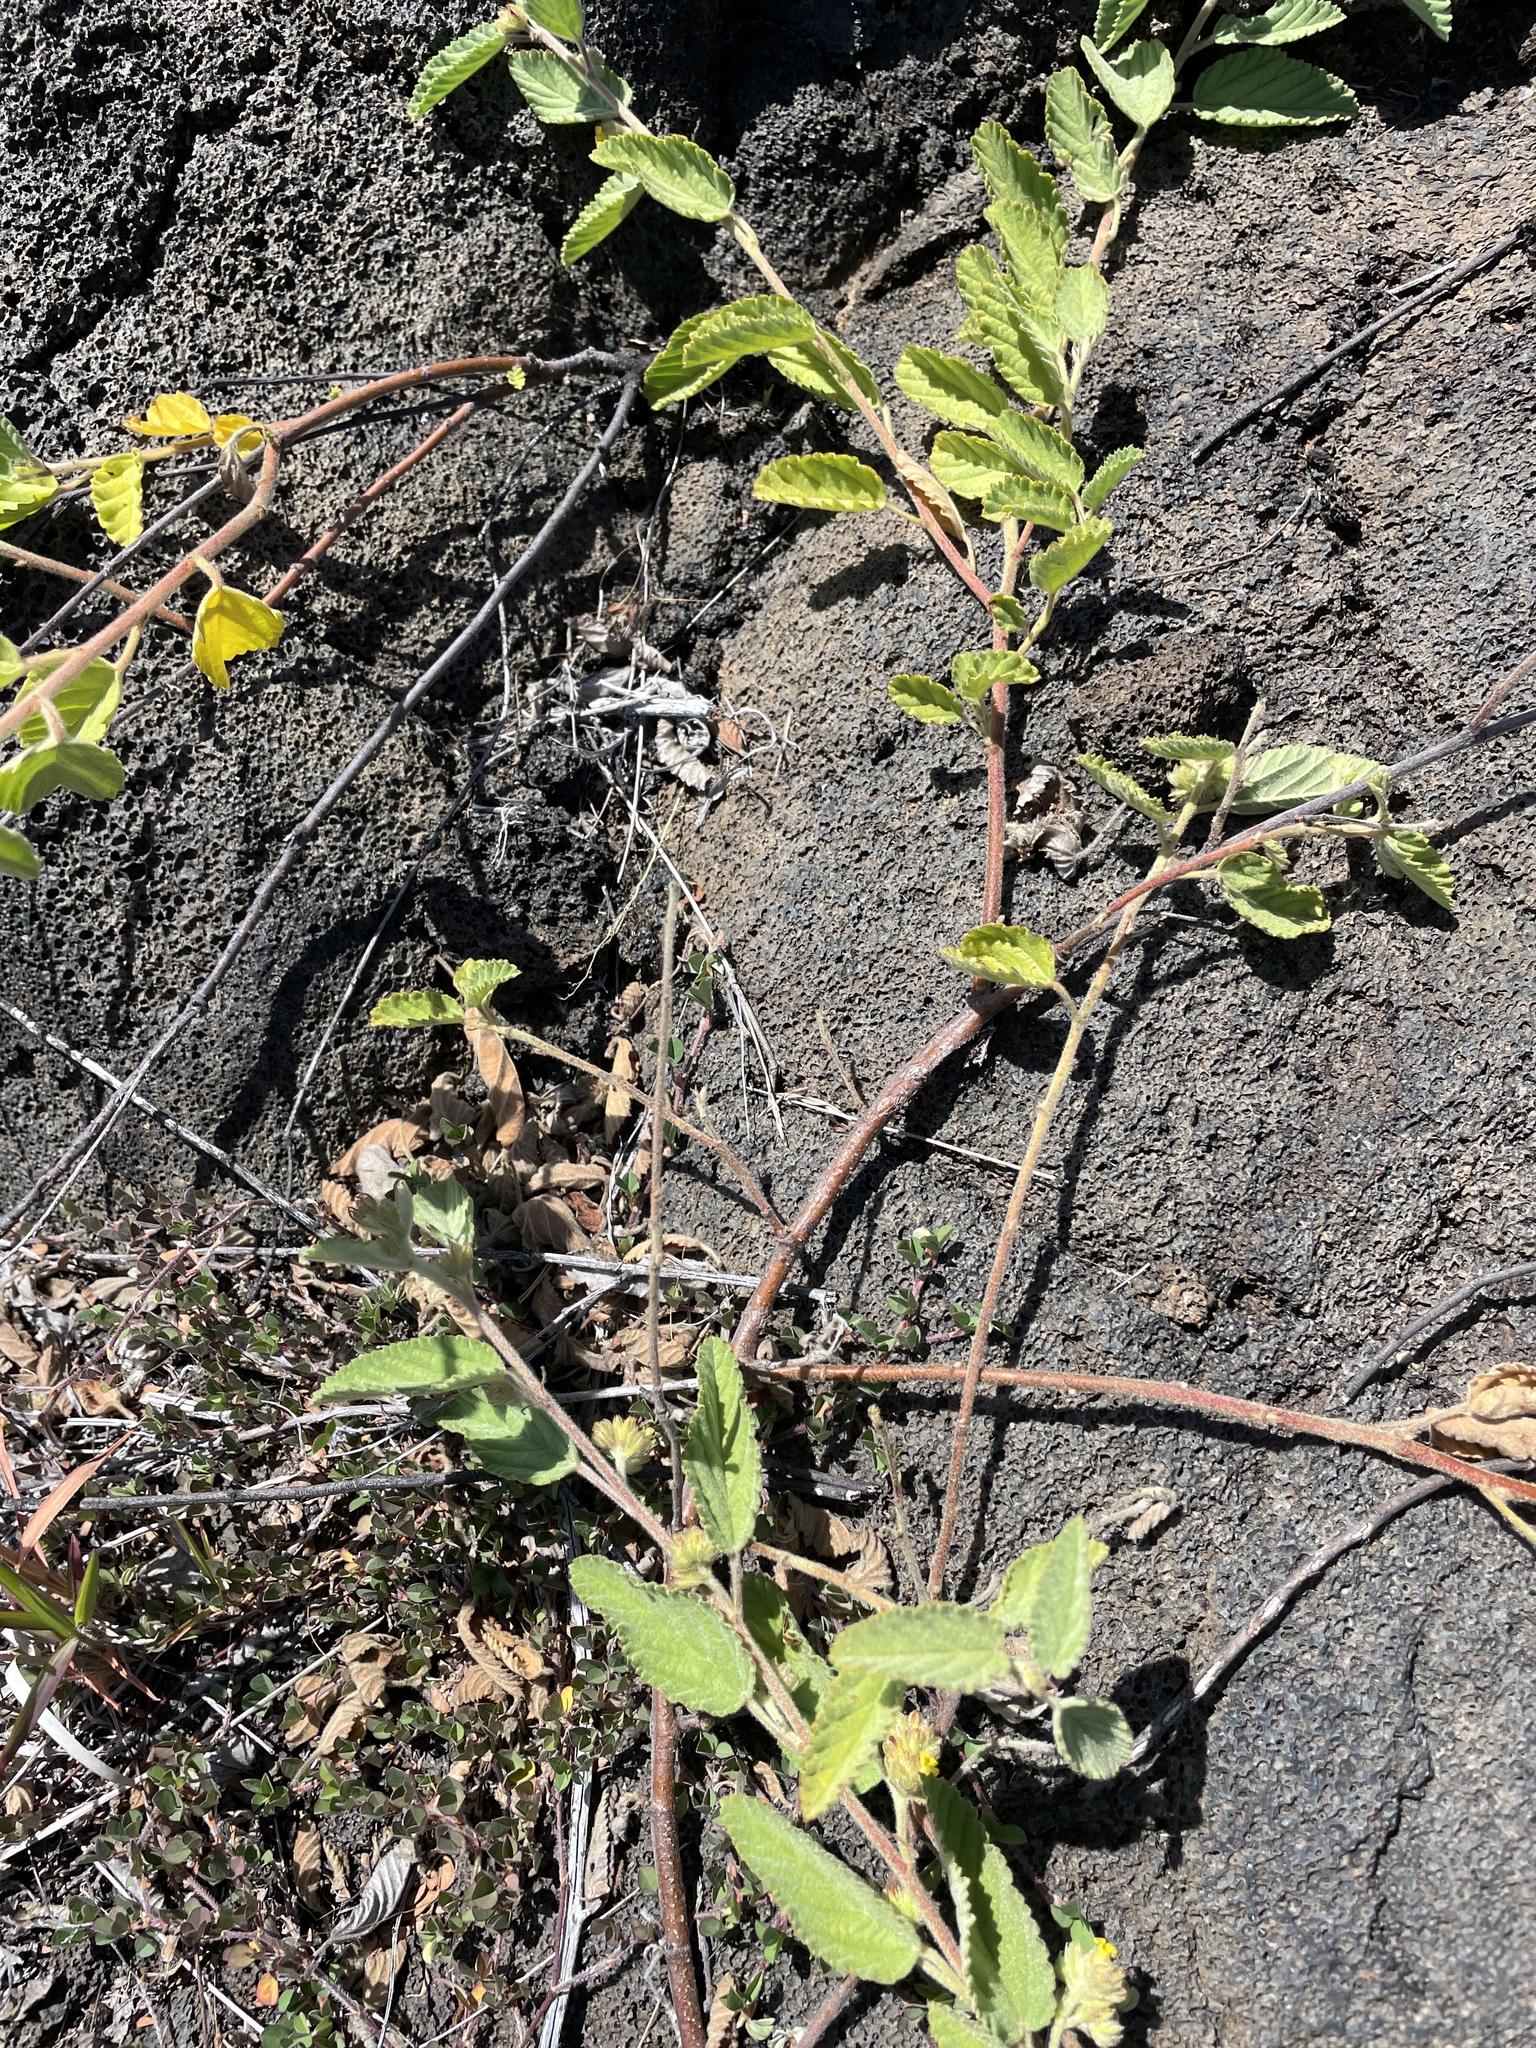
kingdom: Plantae
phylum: Tracheophyta
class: Magnoliopsida
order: Malvales
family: Malvaceae
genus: Waltheria
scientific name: Waltheria indica
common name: Leather-coat
